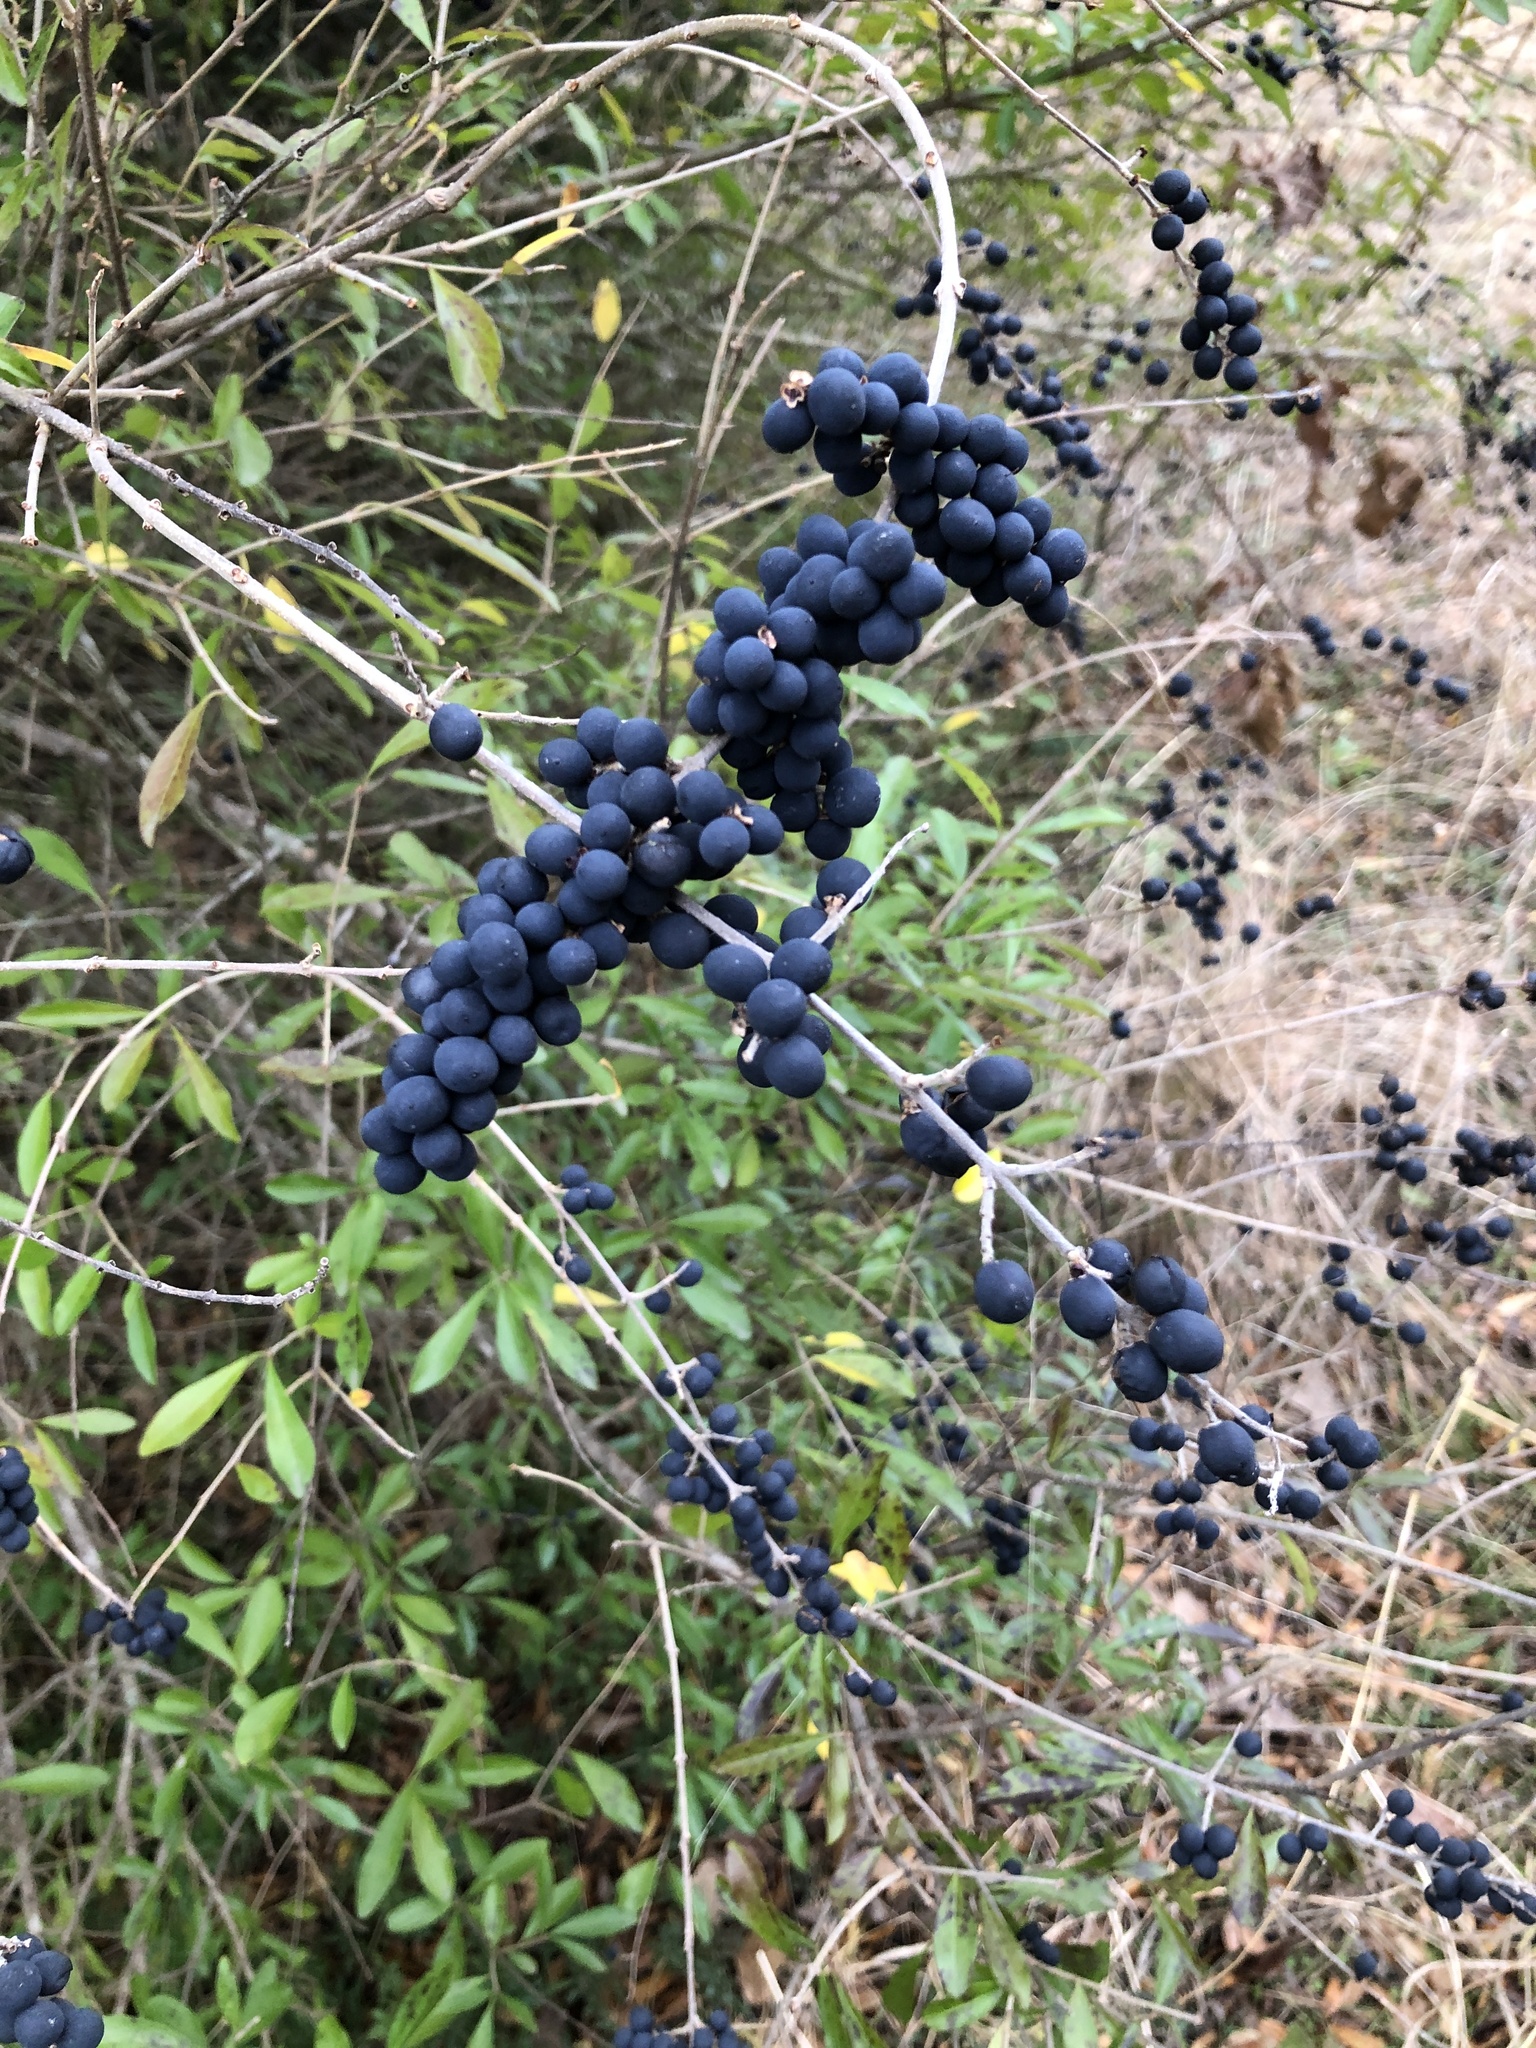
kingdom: Plantae
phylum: Tracheophyta
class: Magnoliopsida
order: Lamiales
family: Oleaceae
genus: Ligustrum
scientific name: Ligustrum quihoui
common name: Waxyleaf privet
